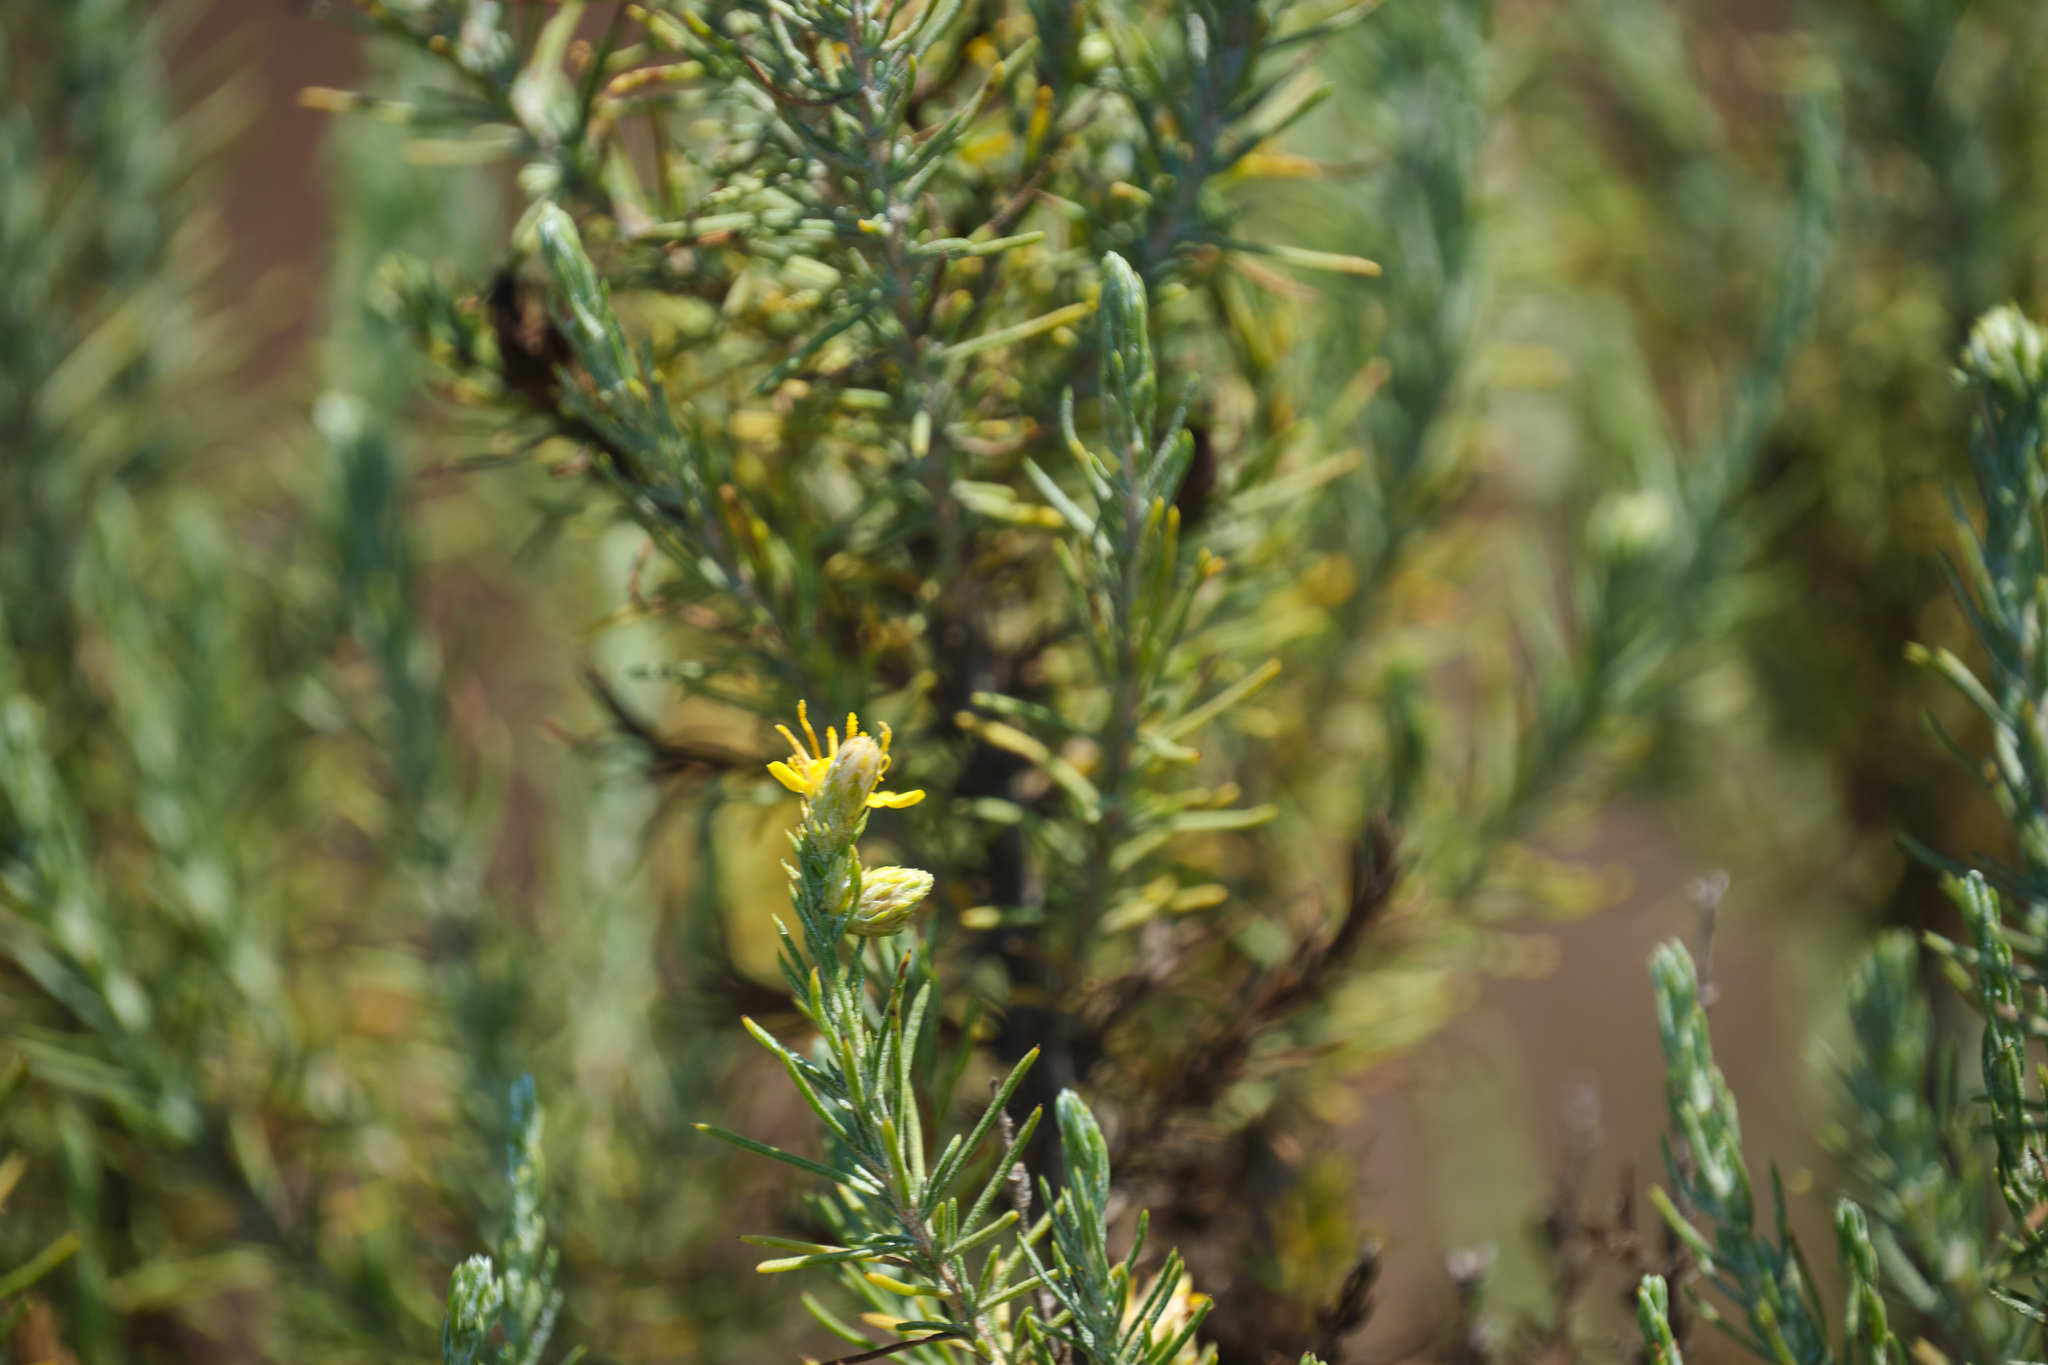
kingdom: Plantae
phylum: Tracheophyta
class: Magnoliopsida
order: Asterales
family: Asteraceae
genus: Ericameria
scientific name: Ericameria pinifolia
